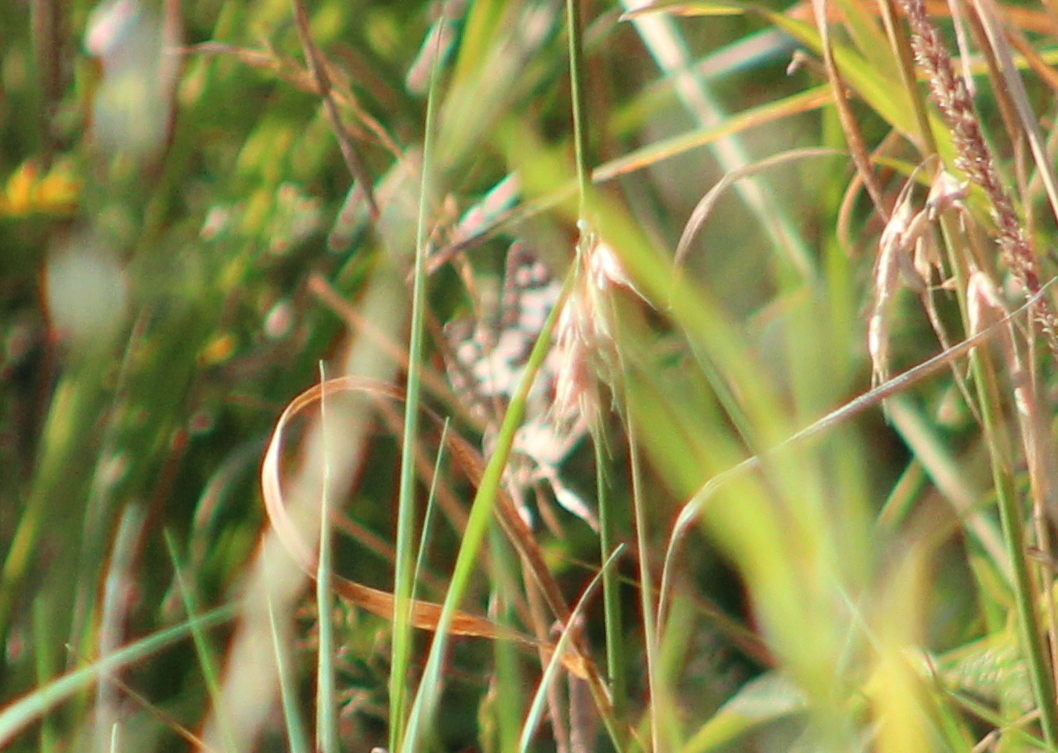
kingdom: Animalia
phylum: Arthropoda
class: Insecta
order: Lepidoptera
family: Nymphalidae
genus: Melanargia
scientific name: Melanargia galathea
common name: Marbled white
